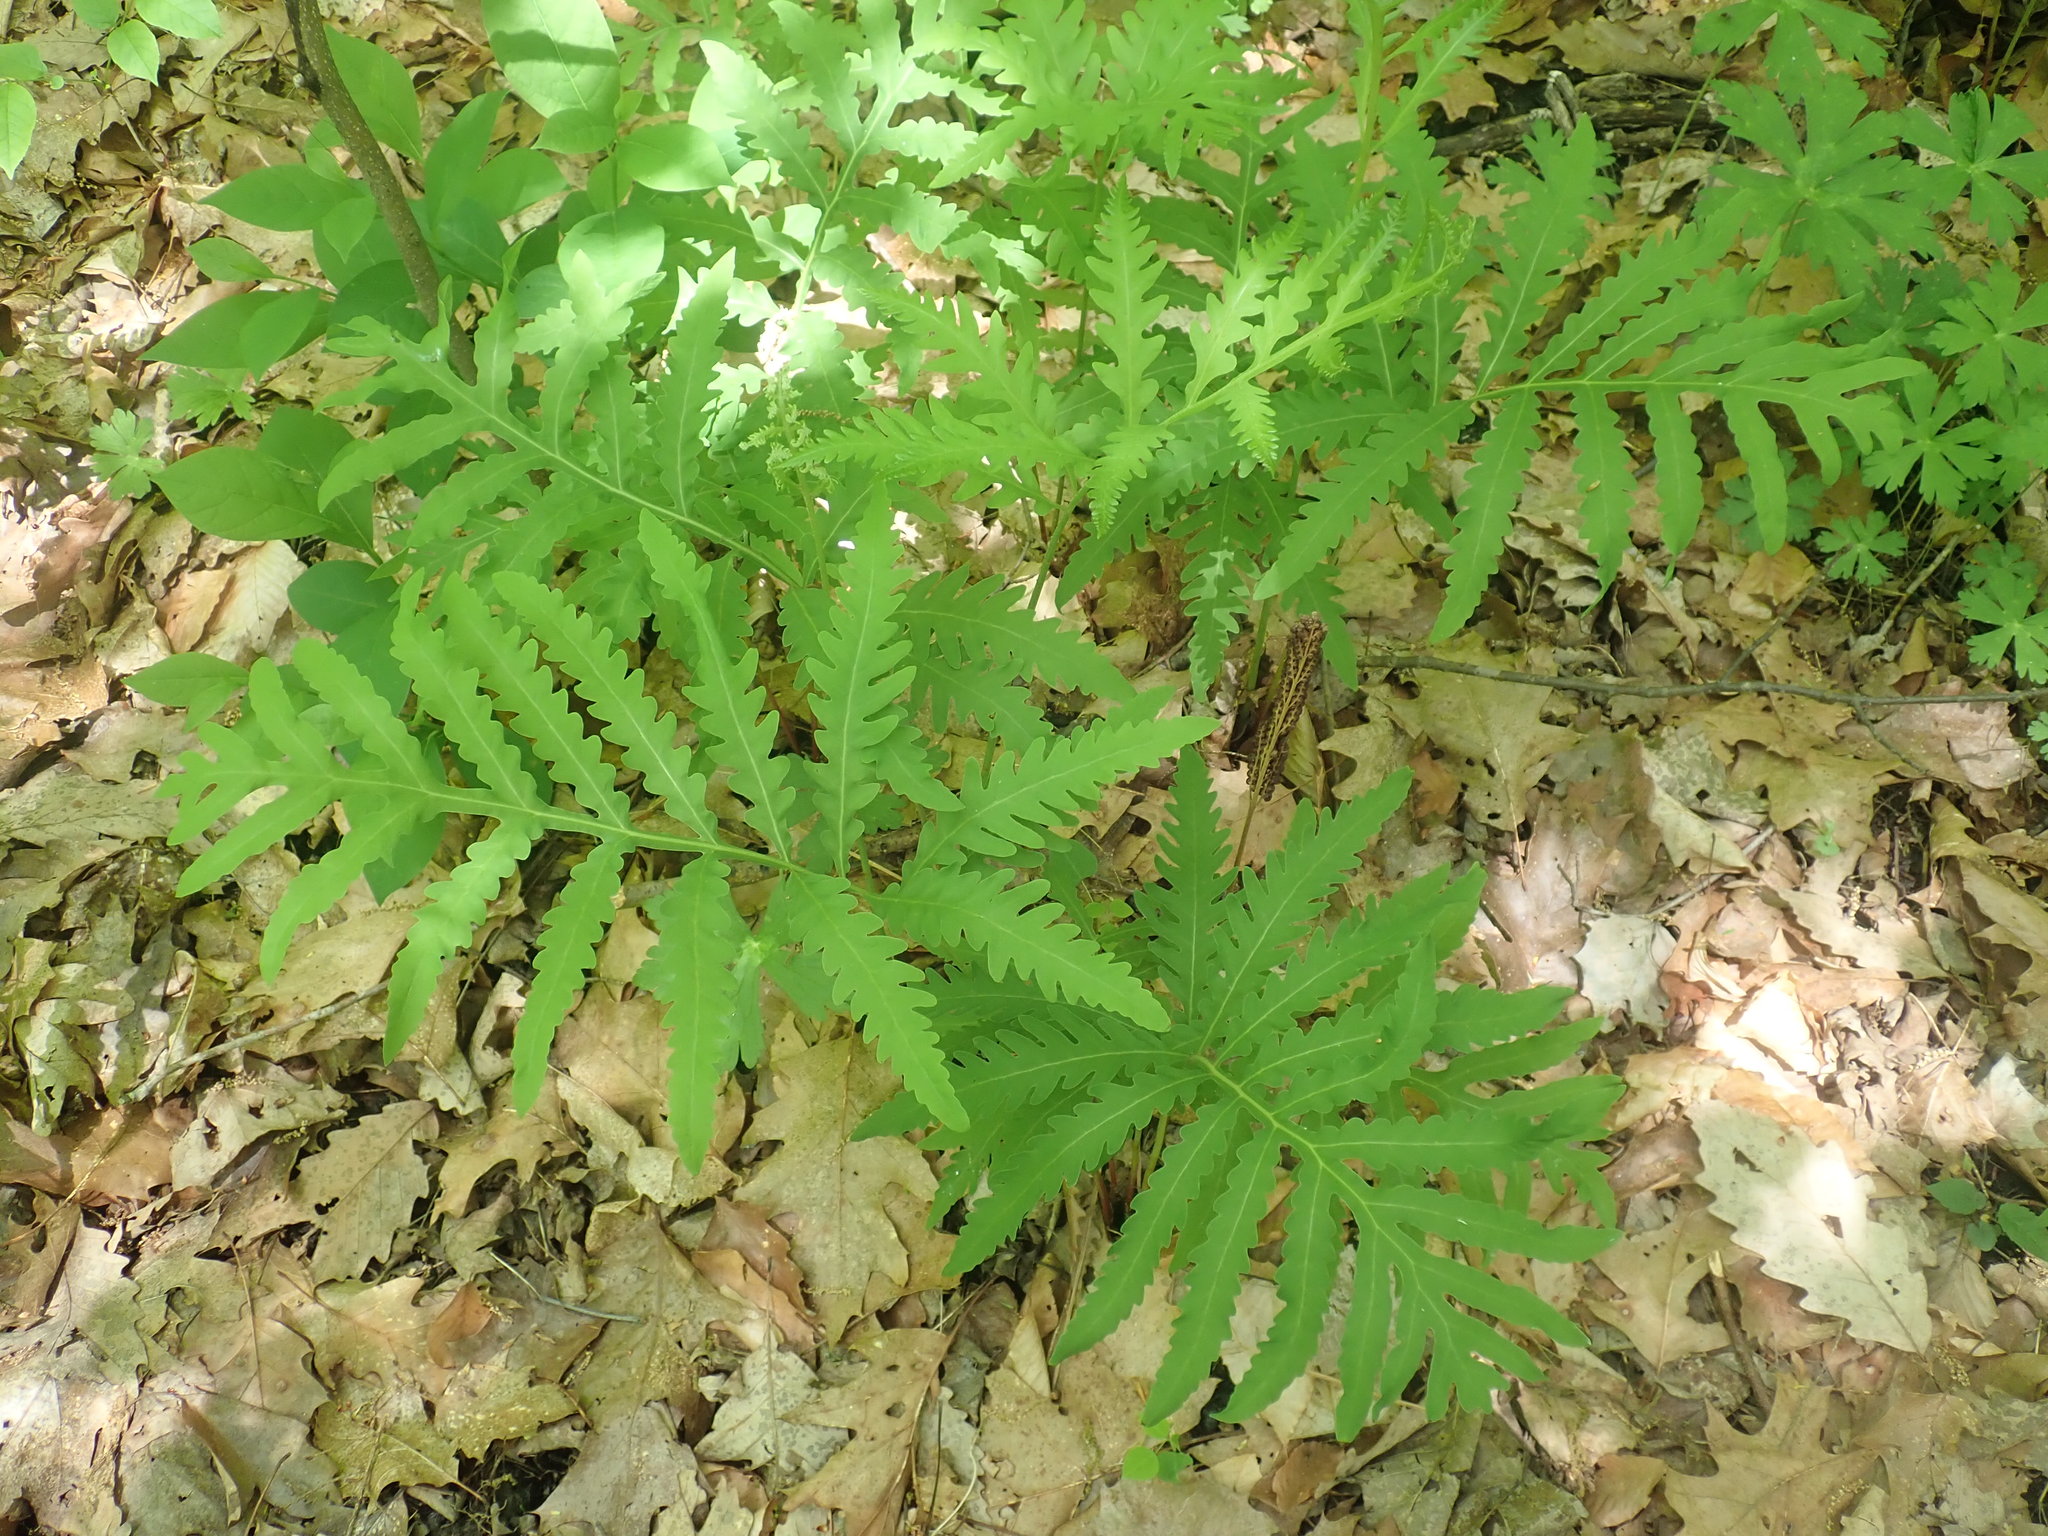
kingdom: Plantae
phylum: Tracheophyta
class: Polypodiopsida
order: Polypodiales
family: Onocleaceae
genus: Onoclea
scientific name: Onoclea sensibilis
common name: Sensitive fern
